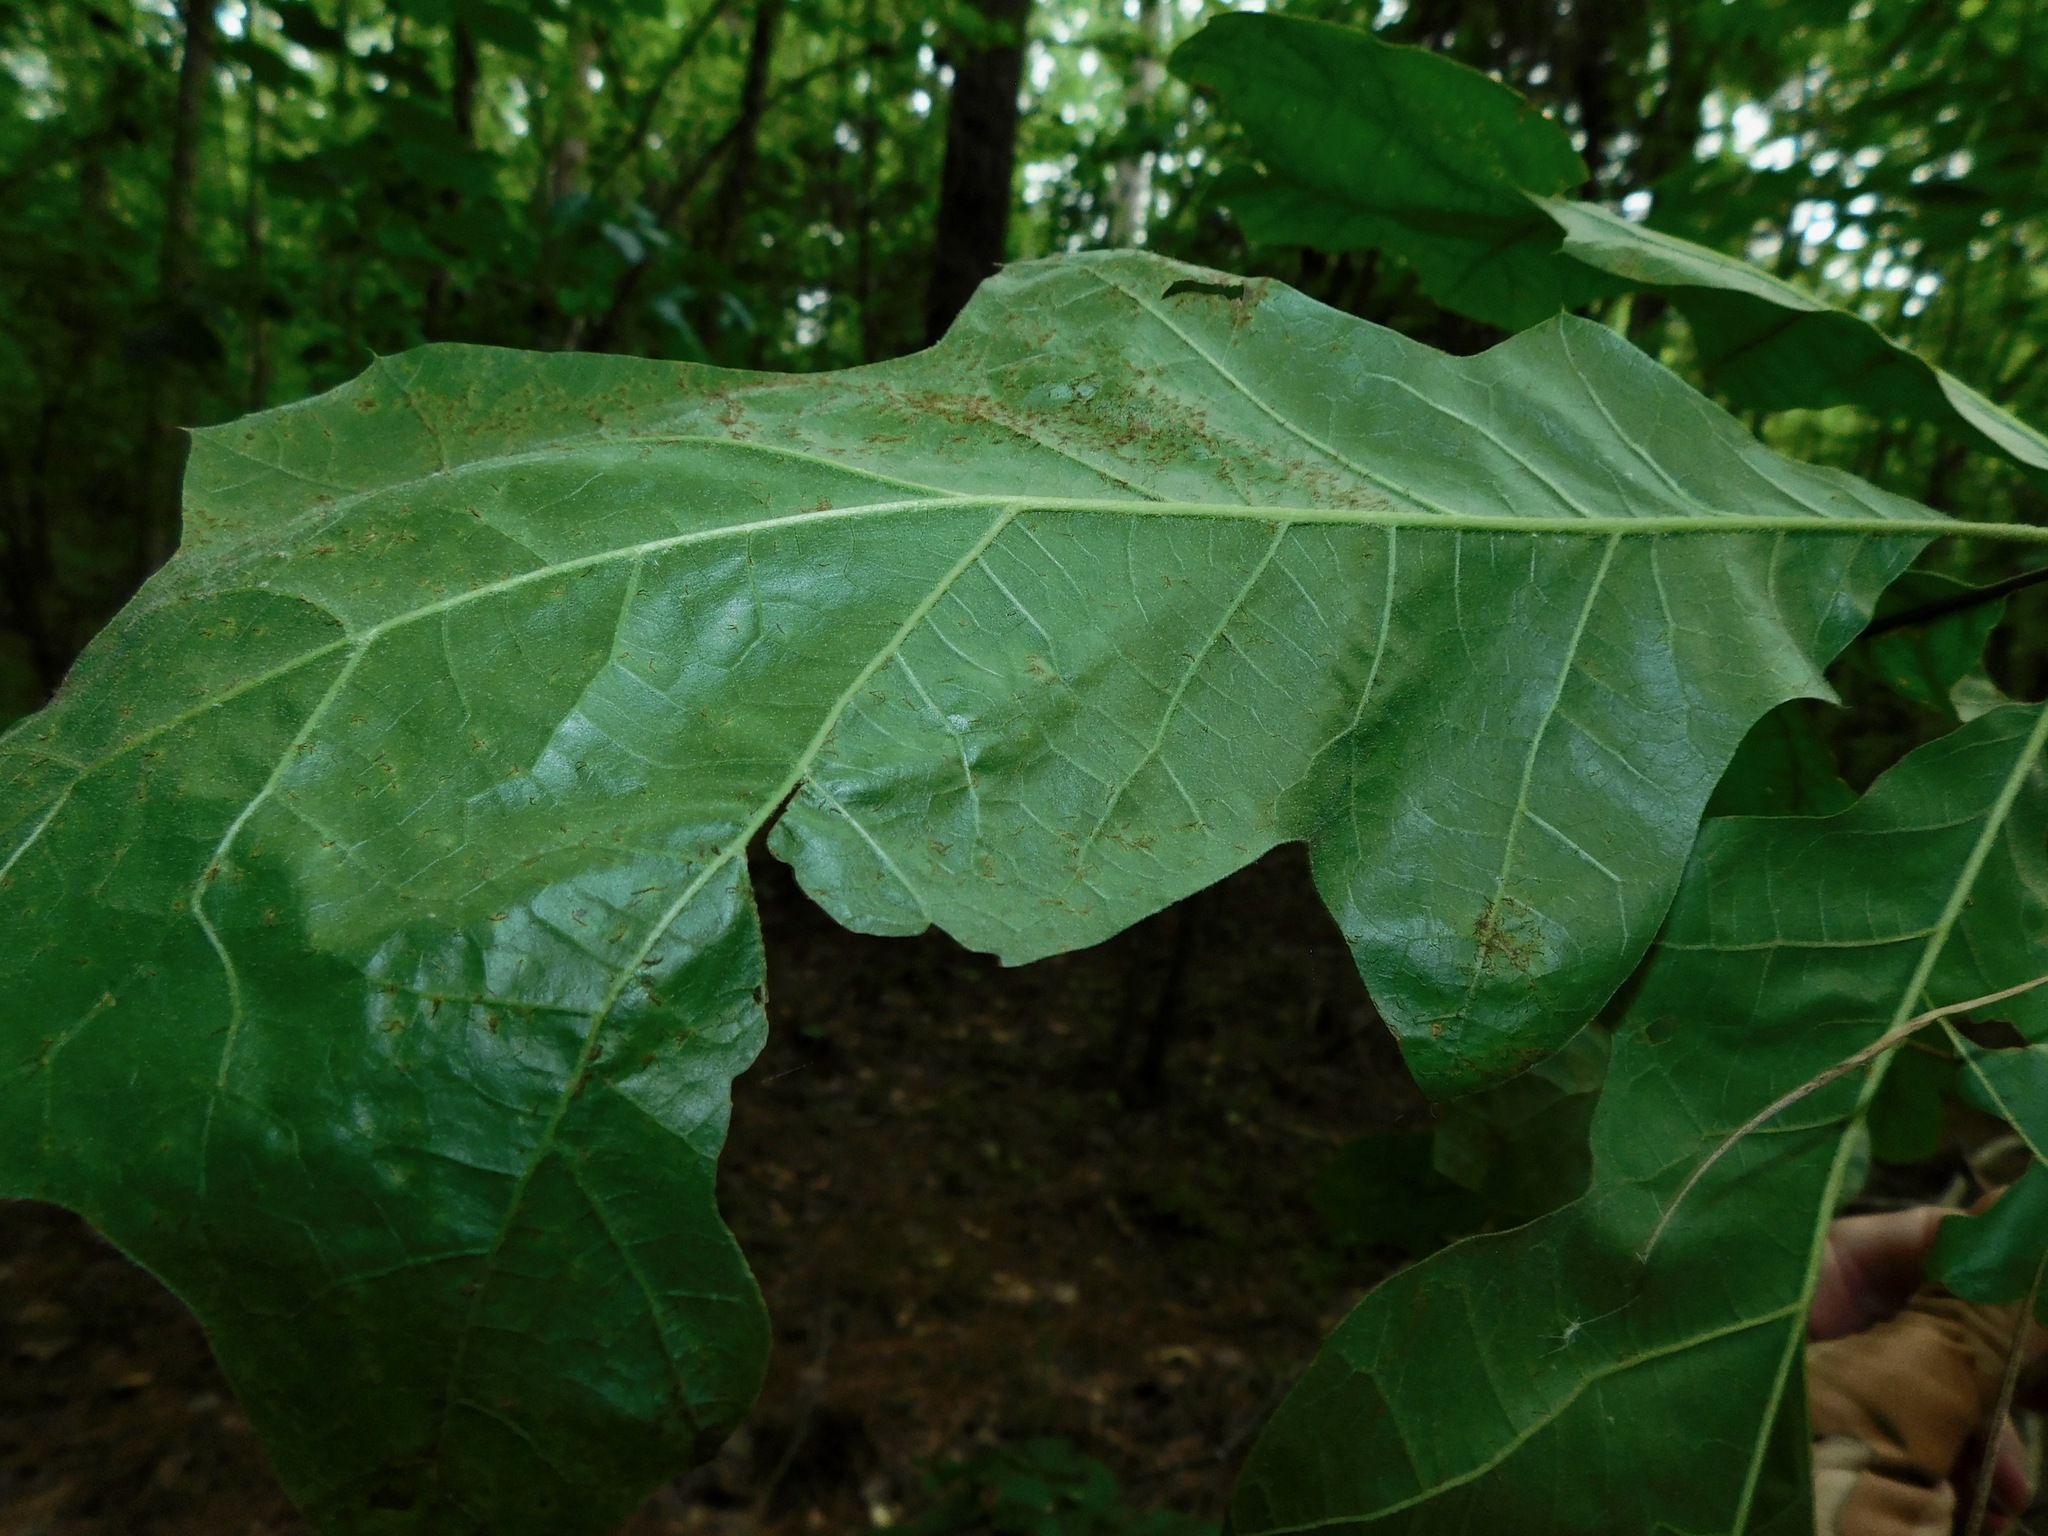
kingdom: Plantae
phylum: Tracheophyta
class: Magnoliopsida
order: Fagales
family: Fagaceae
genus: Quercus
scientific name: Quercus velutina
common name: Black oak
